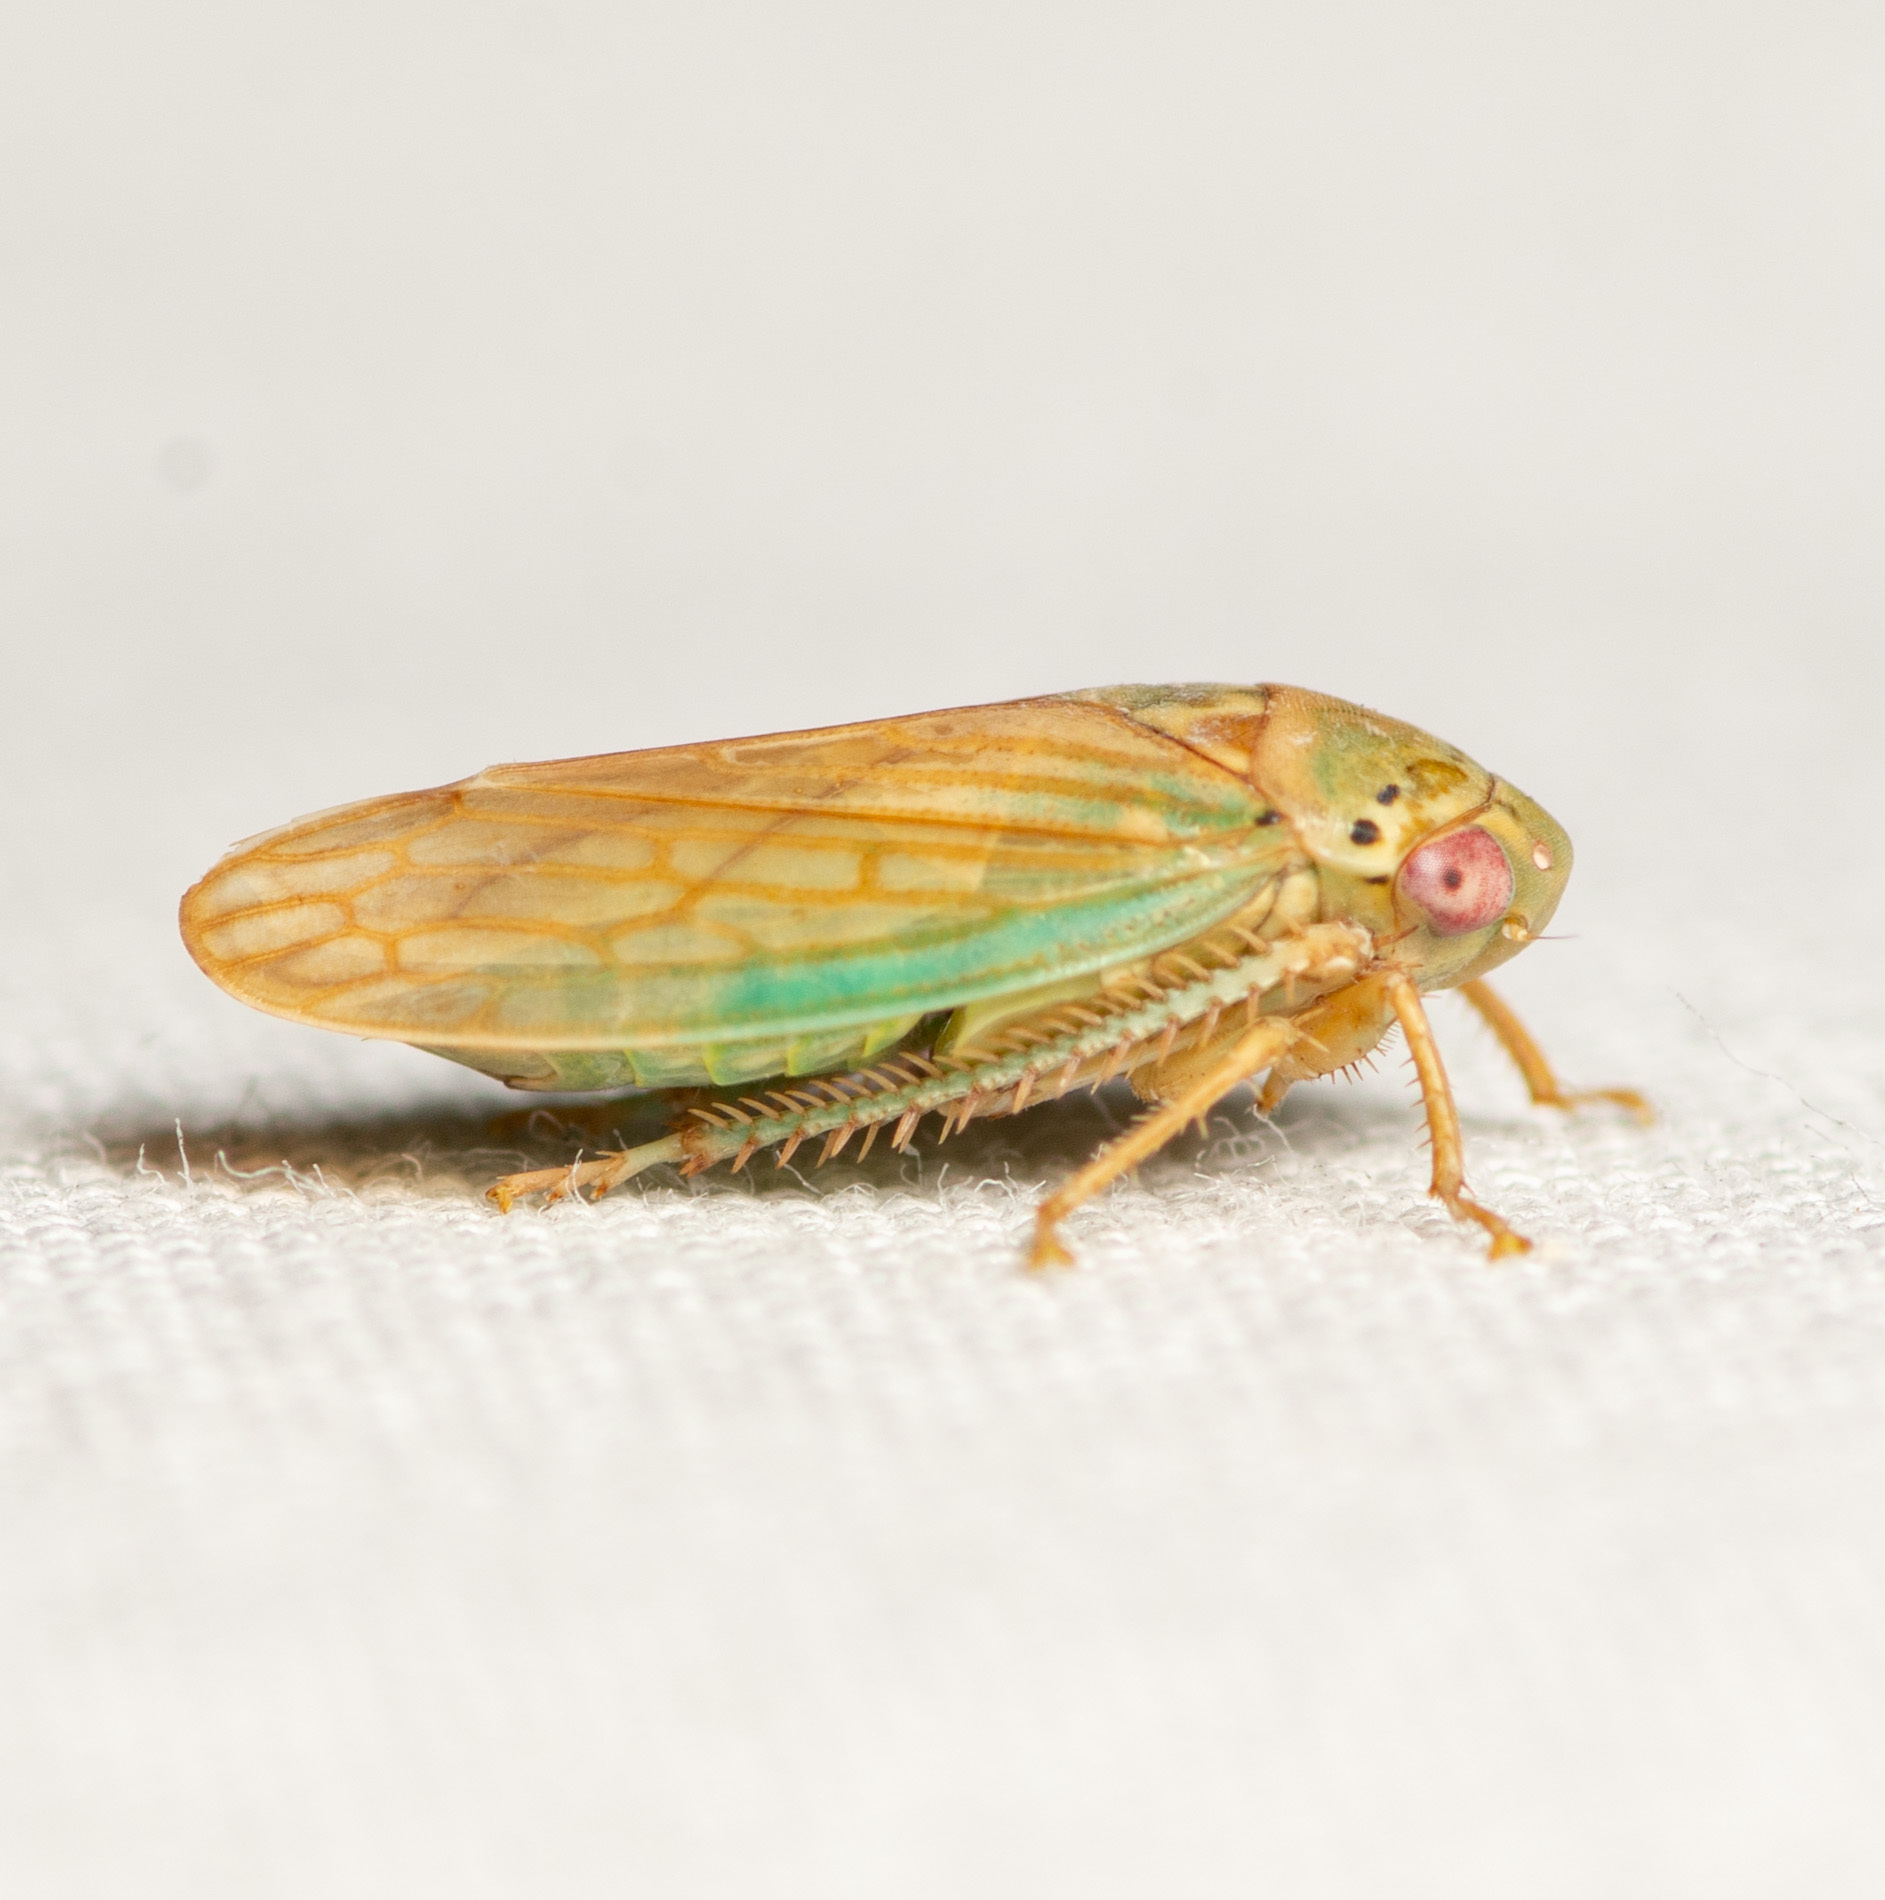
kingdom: Animalia
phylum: Arthropoda
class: Insecta
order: Hemiptera
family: Cicadellidae
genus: Polana
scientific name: Polana quadrinotata
